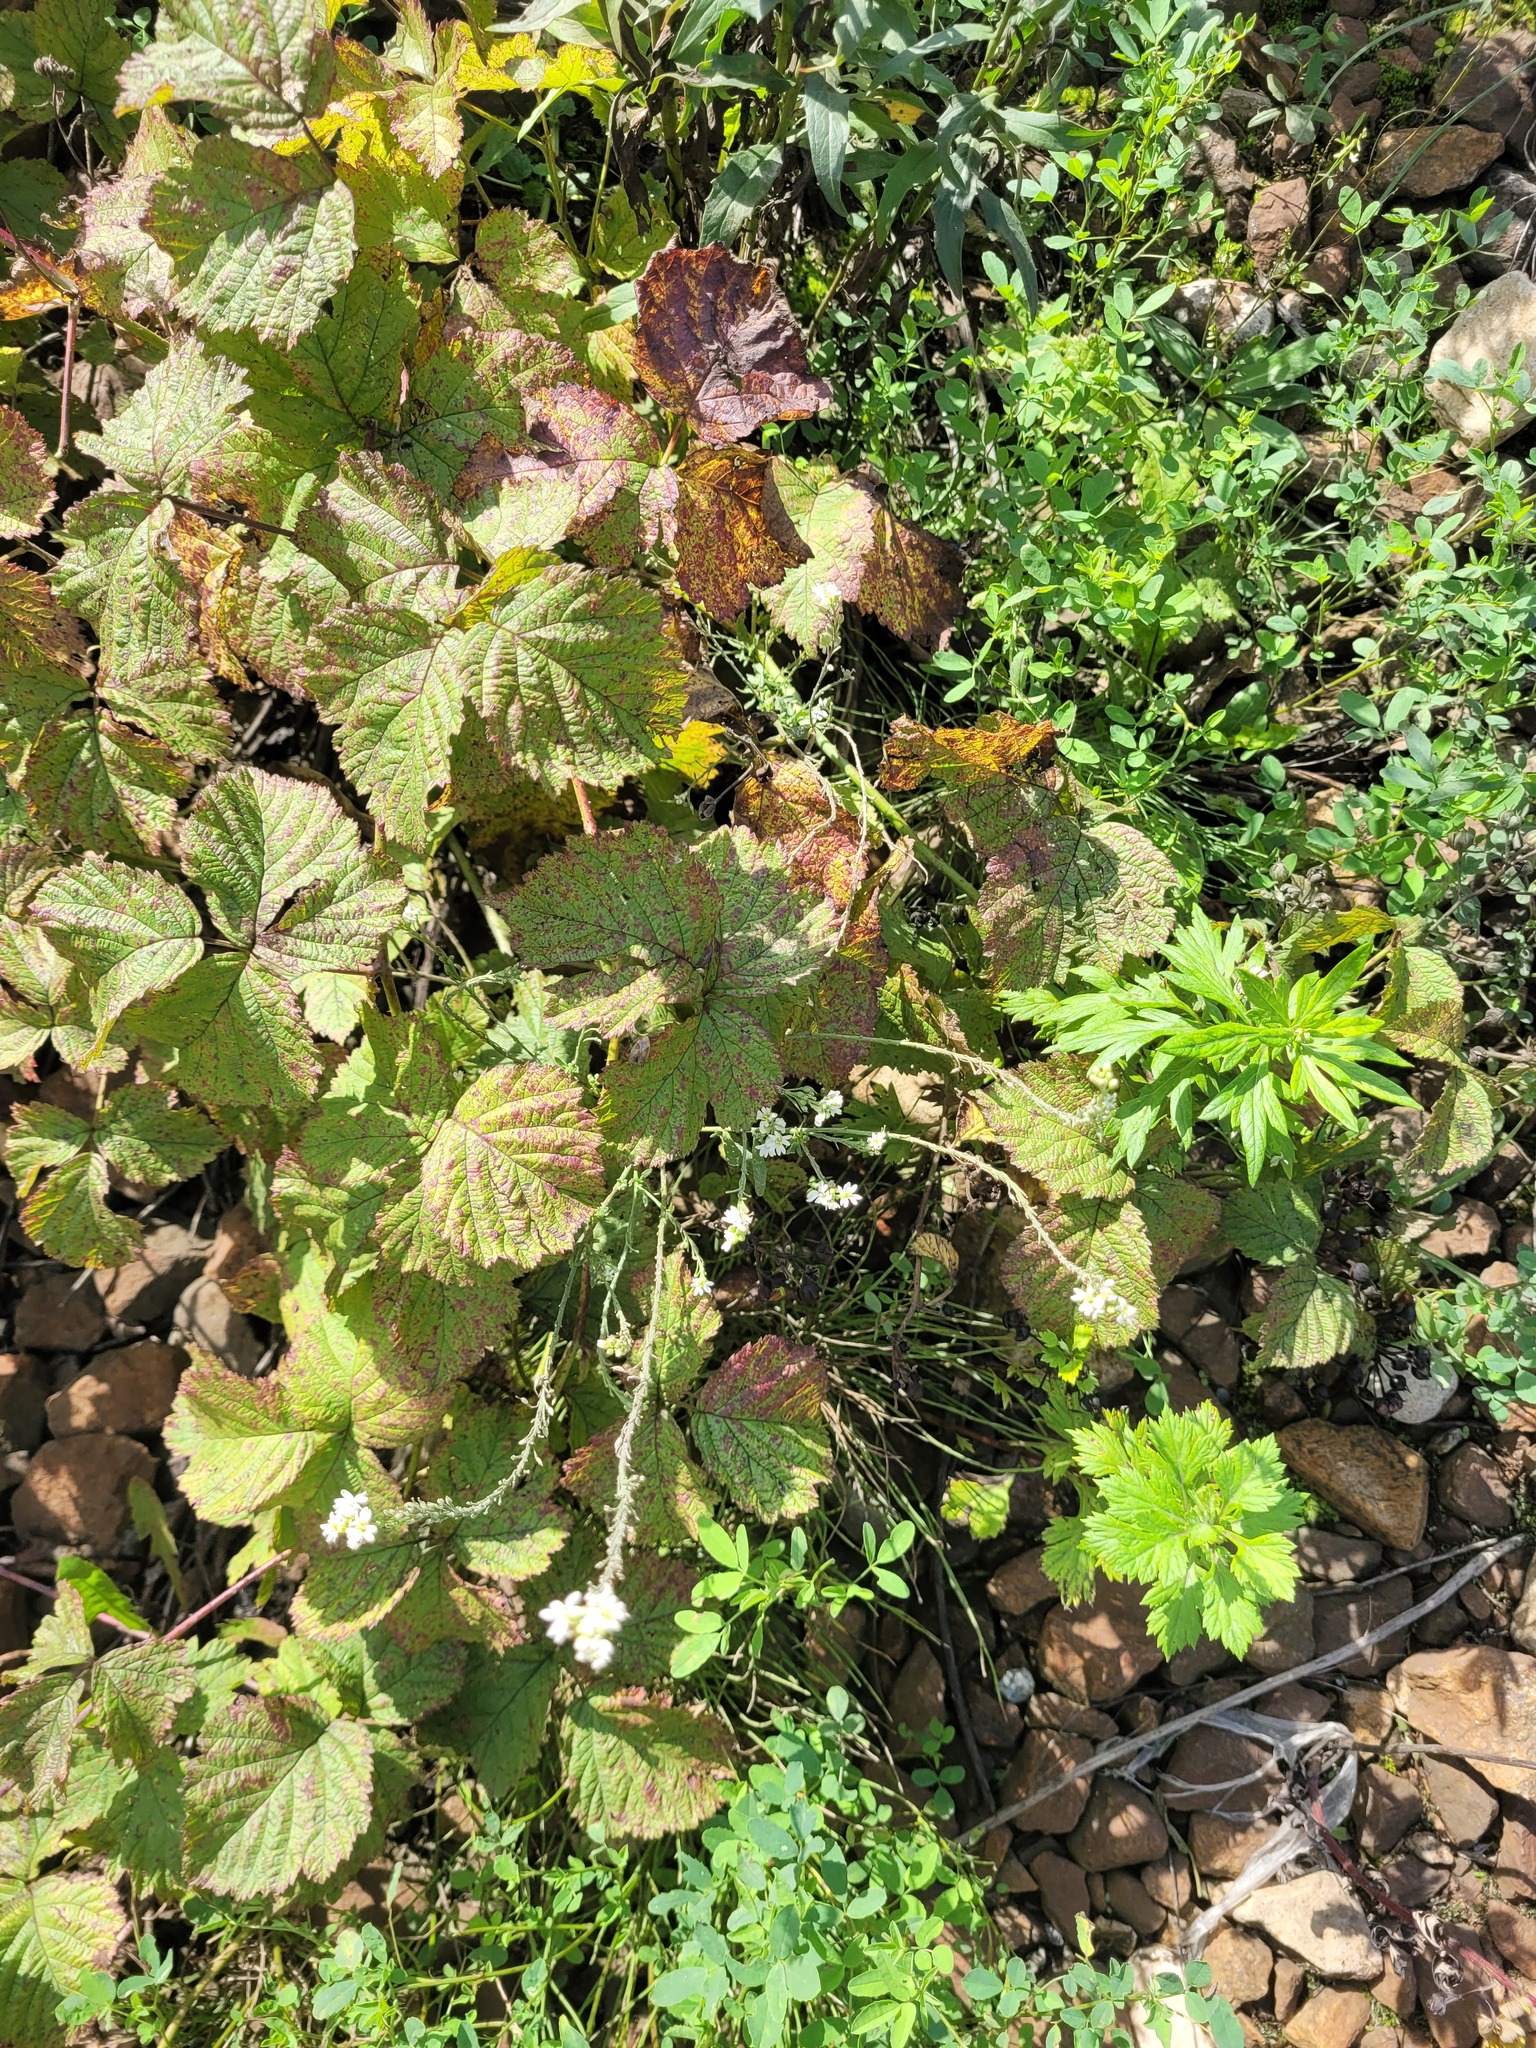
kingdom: Plantae
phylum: Tracheophyta
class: Magnoliopsida
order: Brassicales
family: Brassicaceae
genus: Berteroa
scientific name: Berteroa incana
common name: Hoary alison
